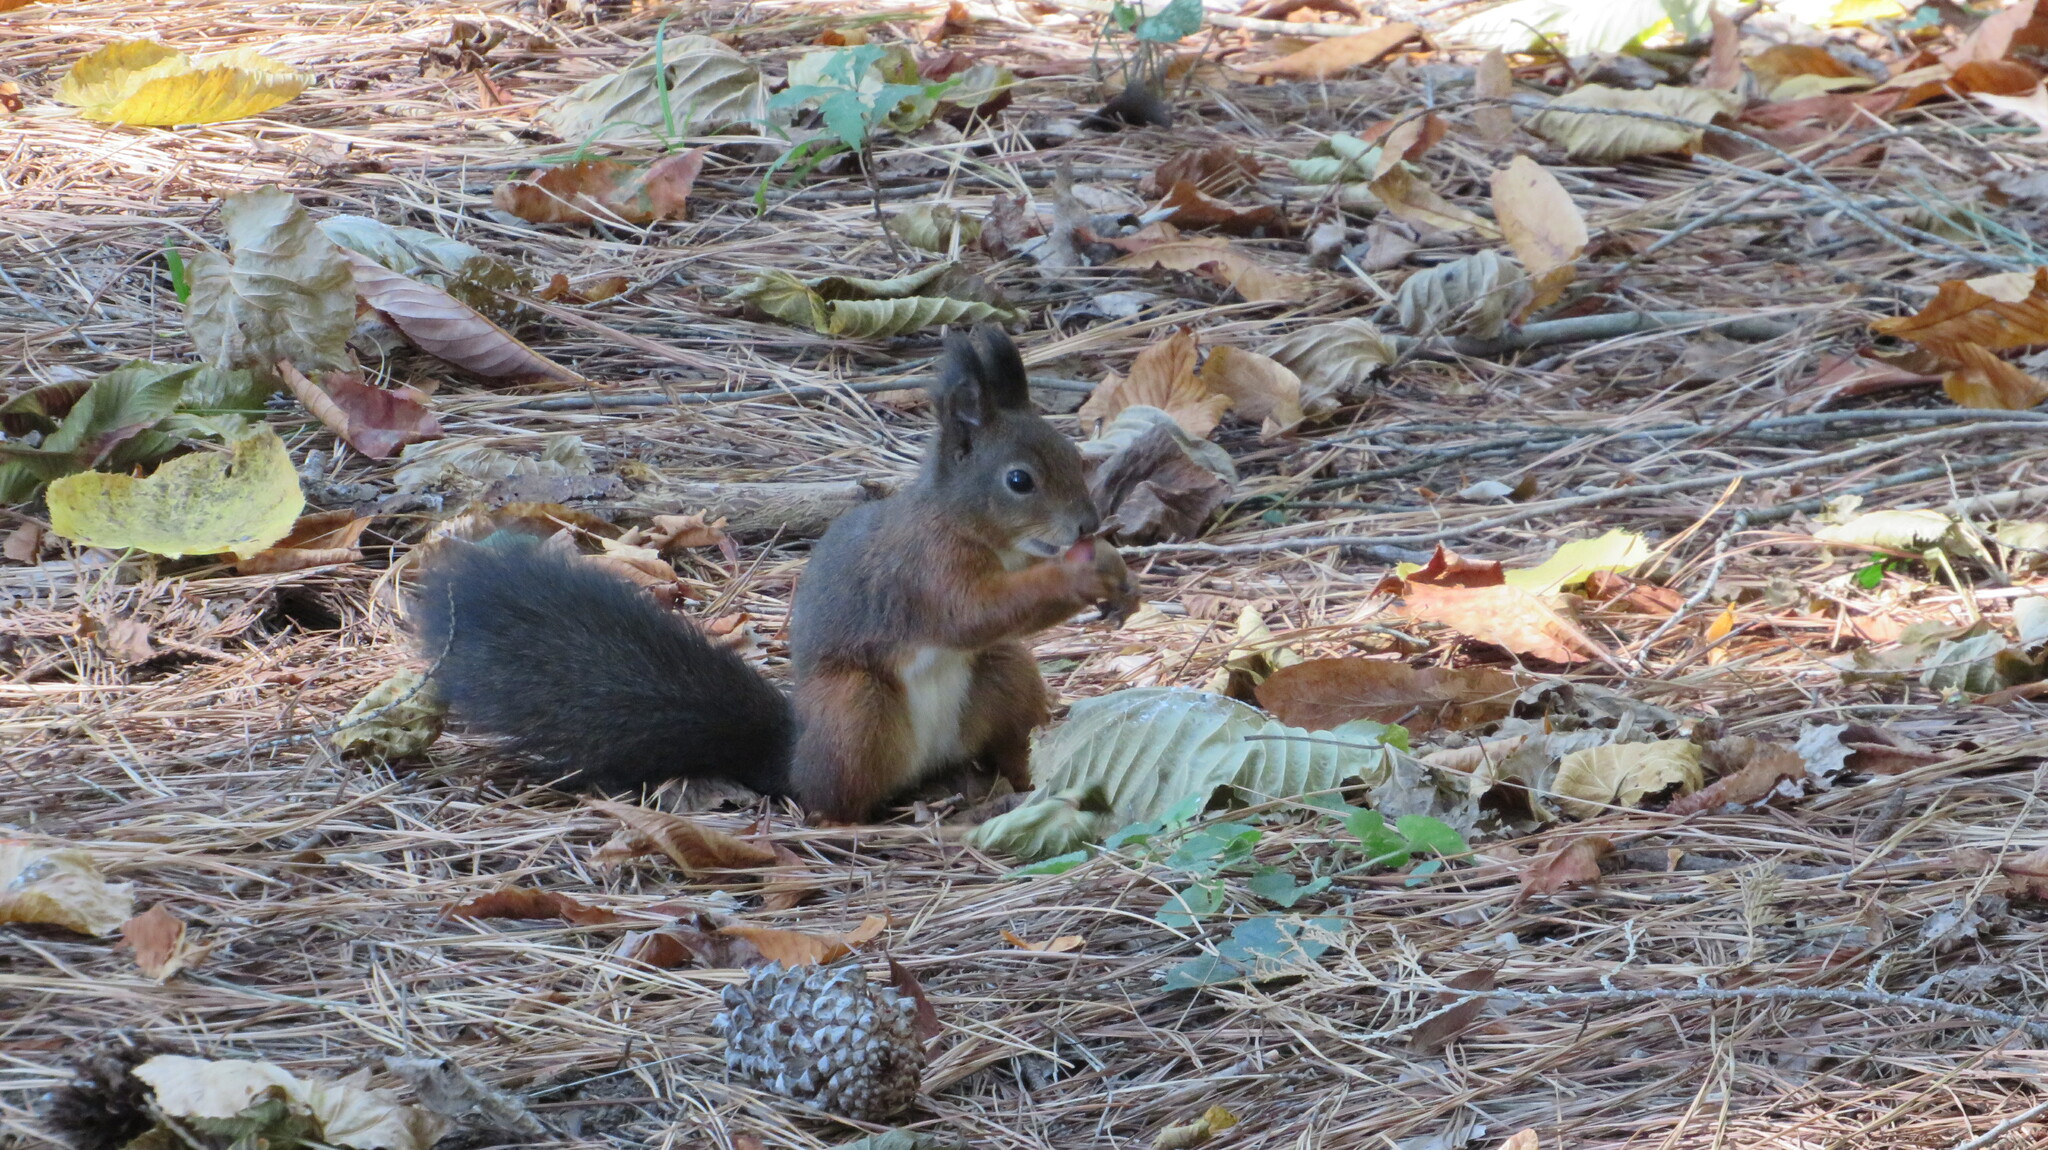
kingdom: Animalia
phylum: Chordata
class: Mammalia
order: Rodentia
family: Sciuridae
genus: Sciurus
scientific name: Sciurus vulgaris
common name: Eurasian red squirrel
